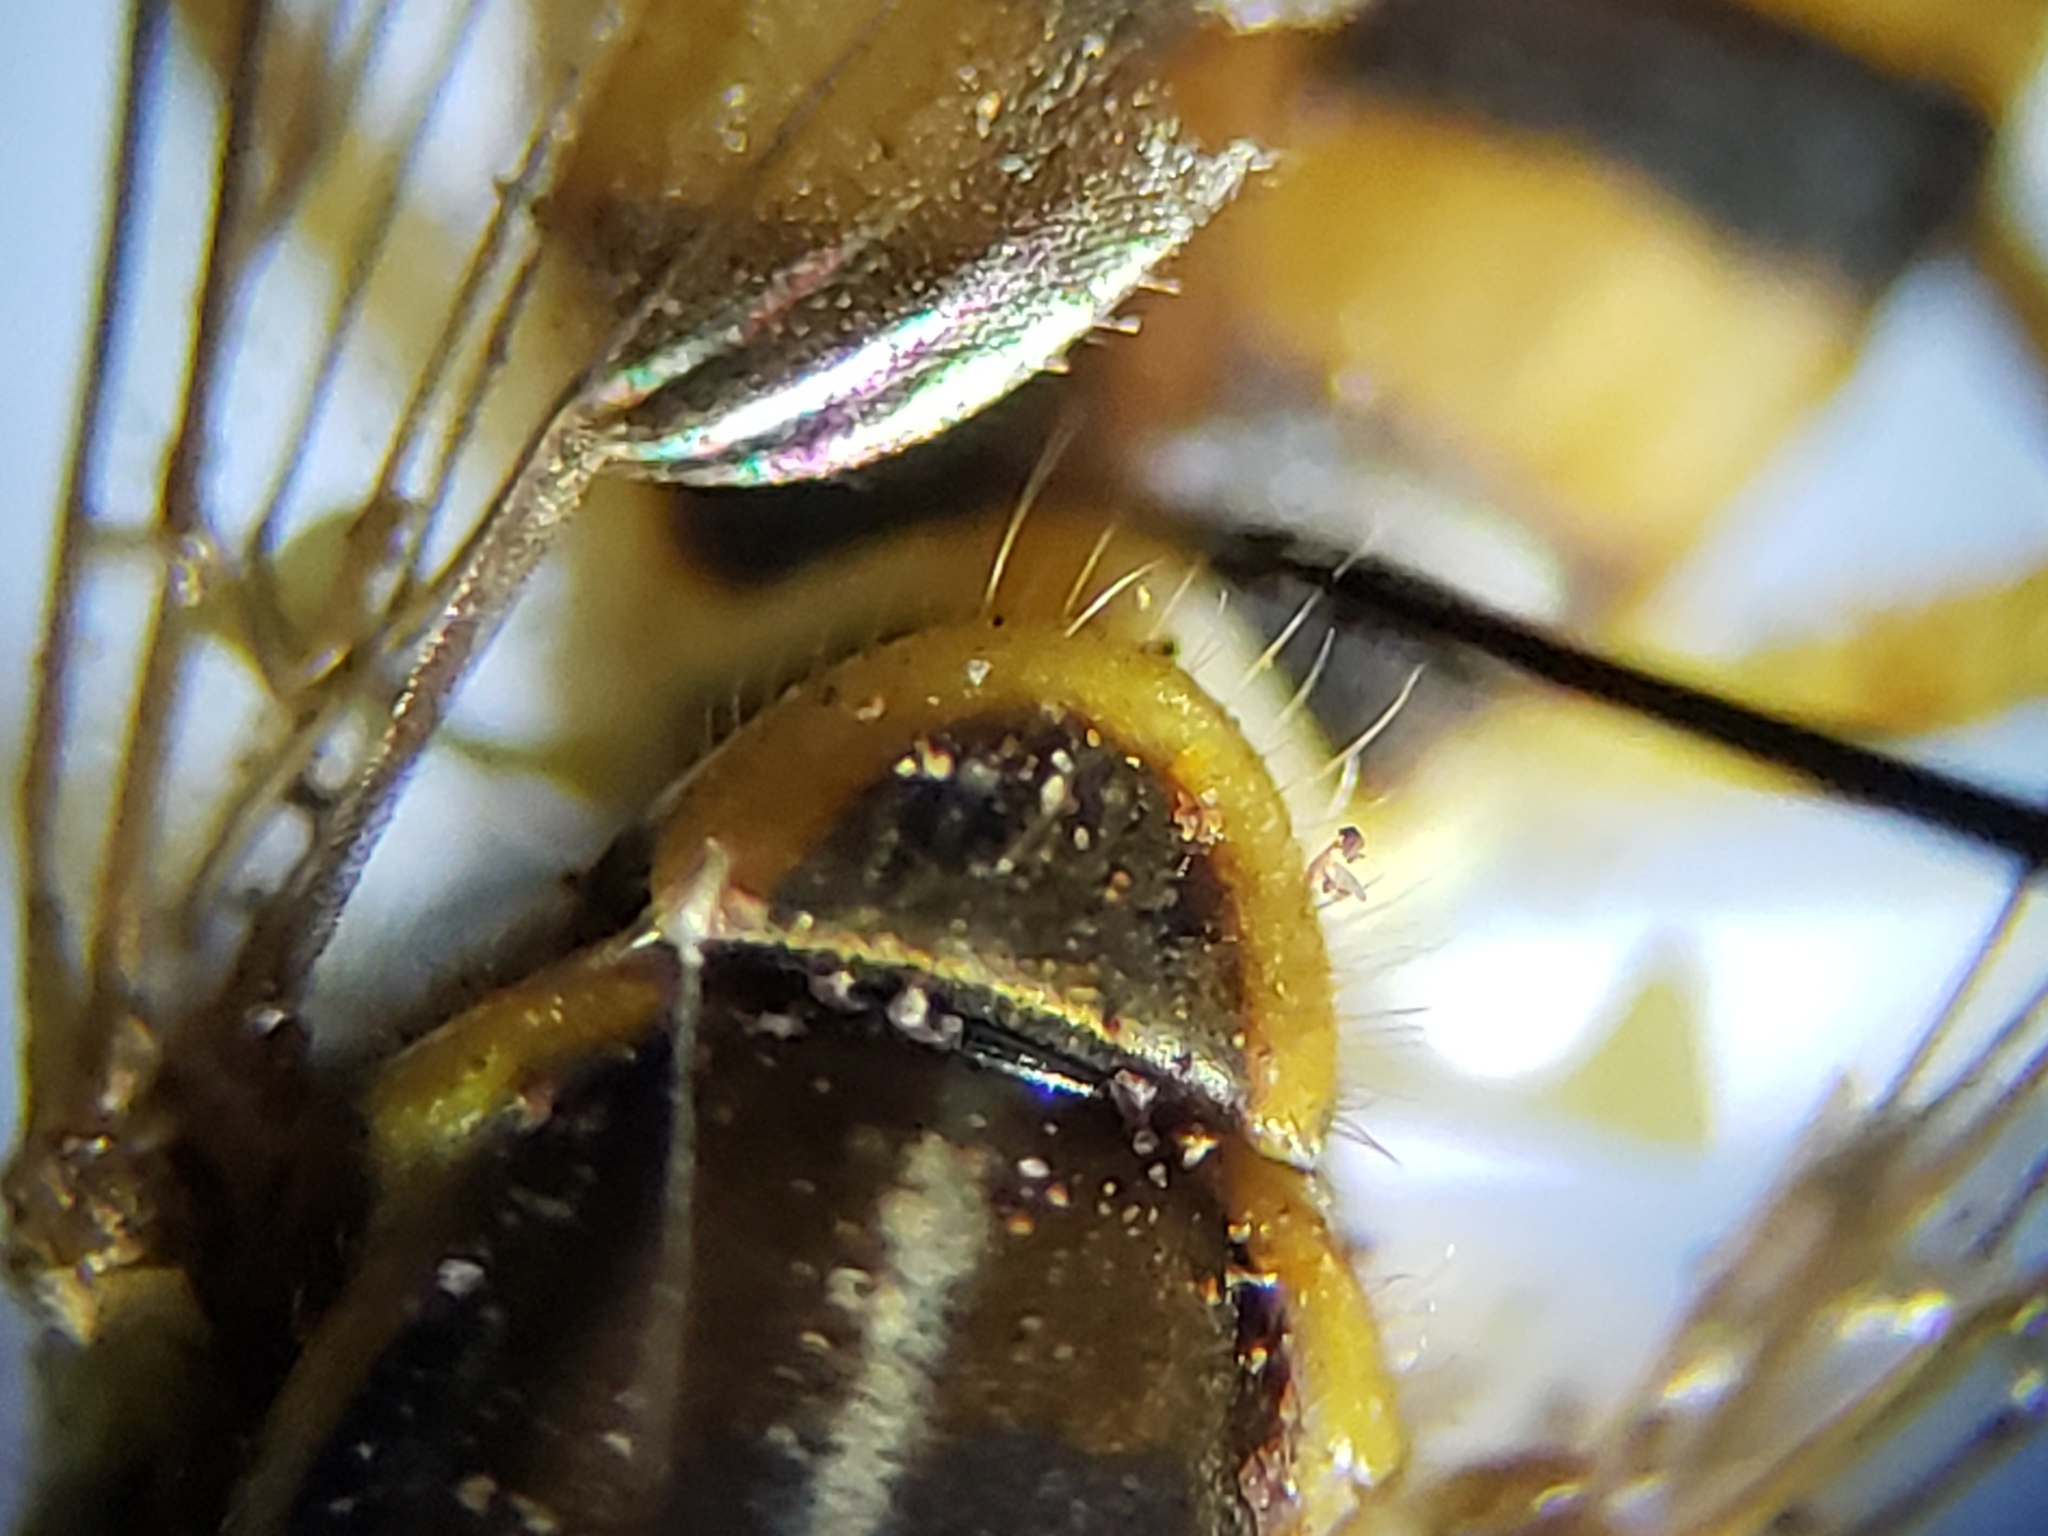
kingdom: Animalia
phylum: Arthropoda
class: Insecta
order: Diptera
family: Syrphidae
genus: Toxomerus
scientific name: Toxomerus floralis
